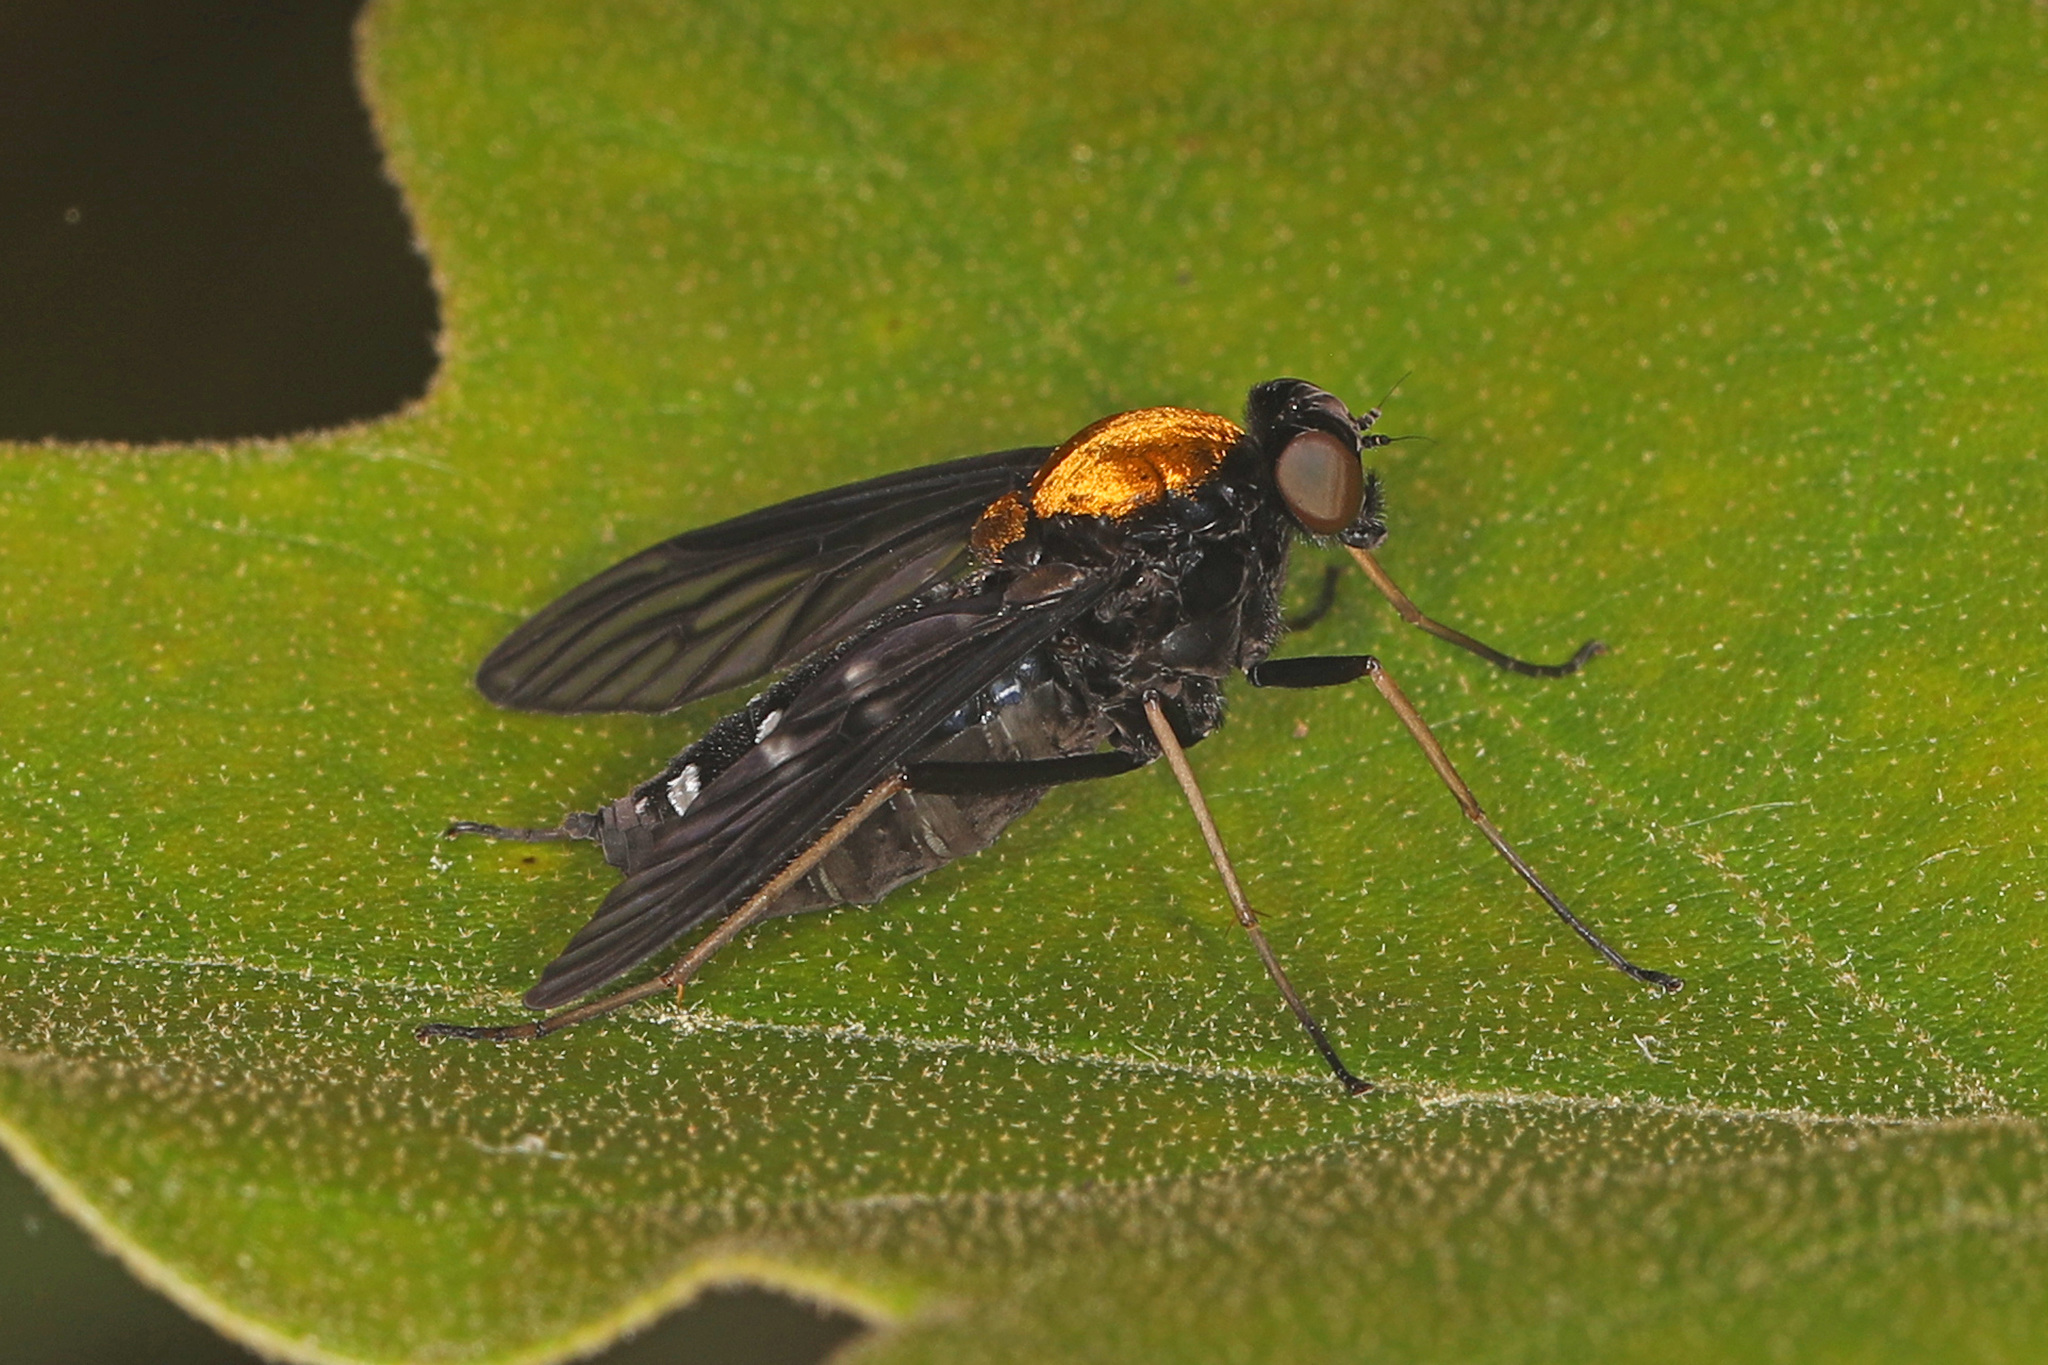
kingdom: Animalia
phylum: Arthropoda
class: Insecta
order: Diptera
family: Rhagionidae
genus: Chrysopilus
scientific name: Chrysopilus thoracicus
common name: Golden-backed snipe fly
